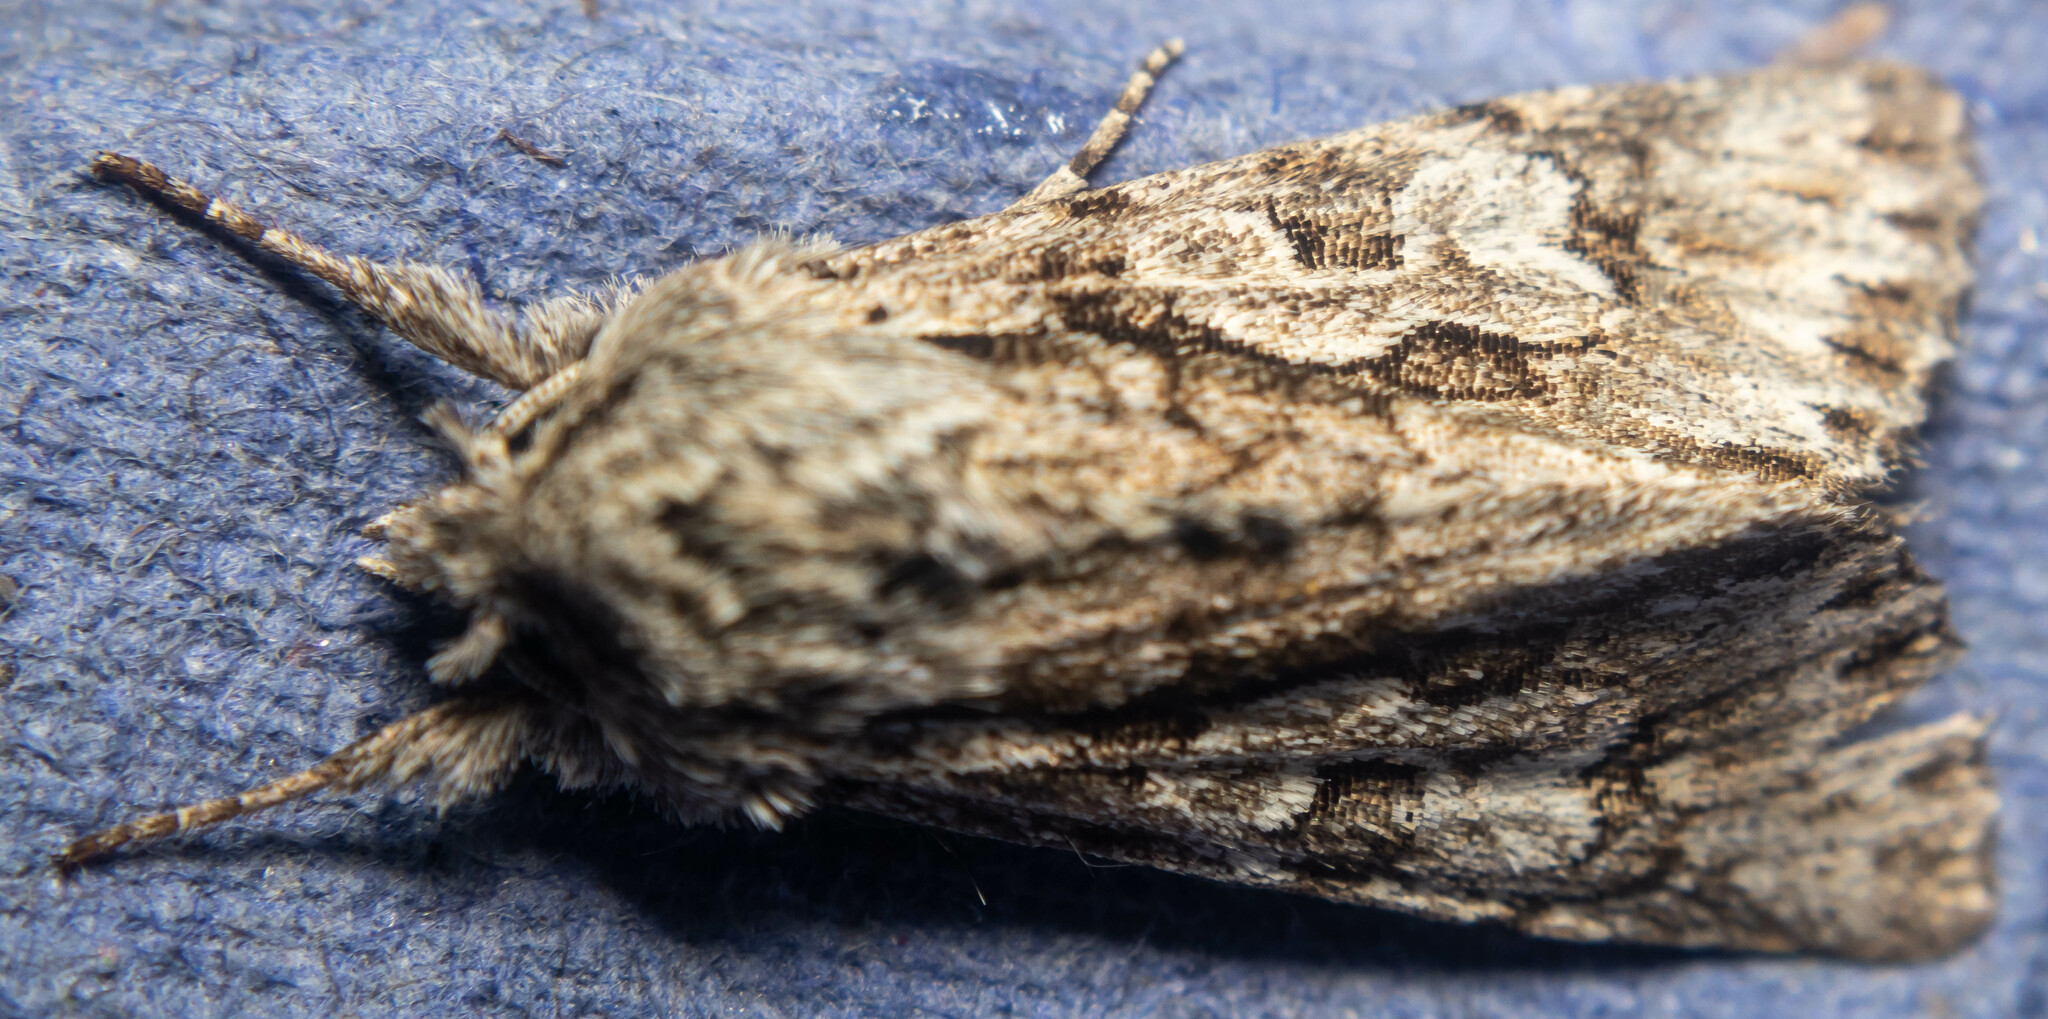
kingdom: Animalia
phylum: Arthropoda
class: Insecta
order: Lepidoptera
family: Noctuidae
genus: Xylocampa
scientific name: Xylocampa areola
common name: Early grey
